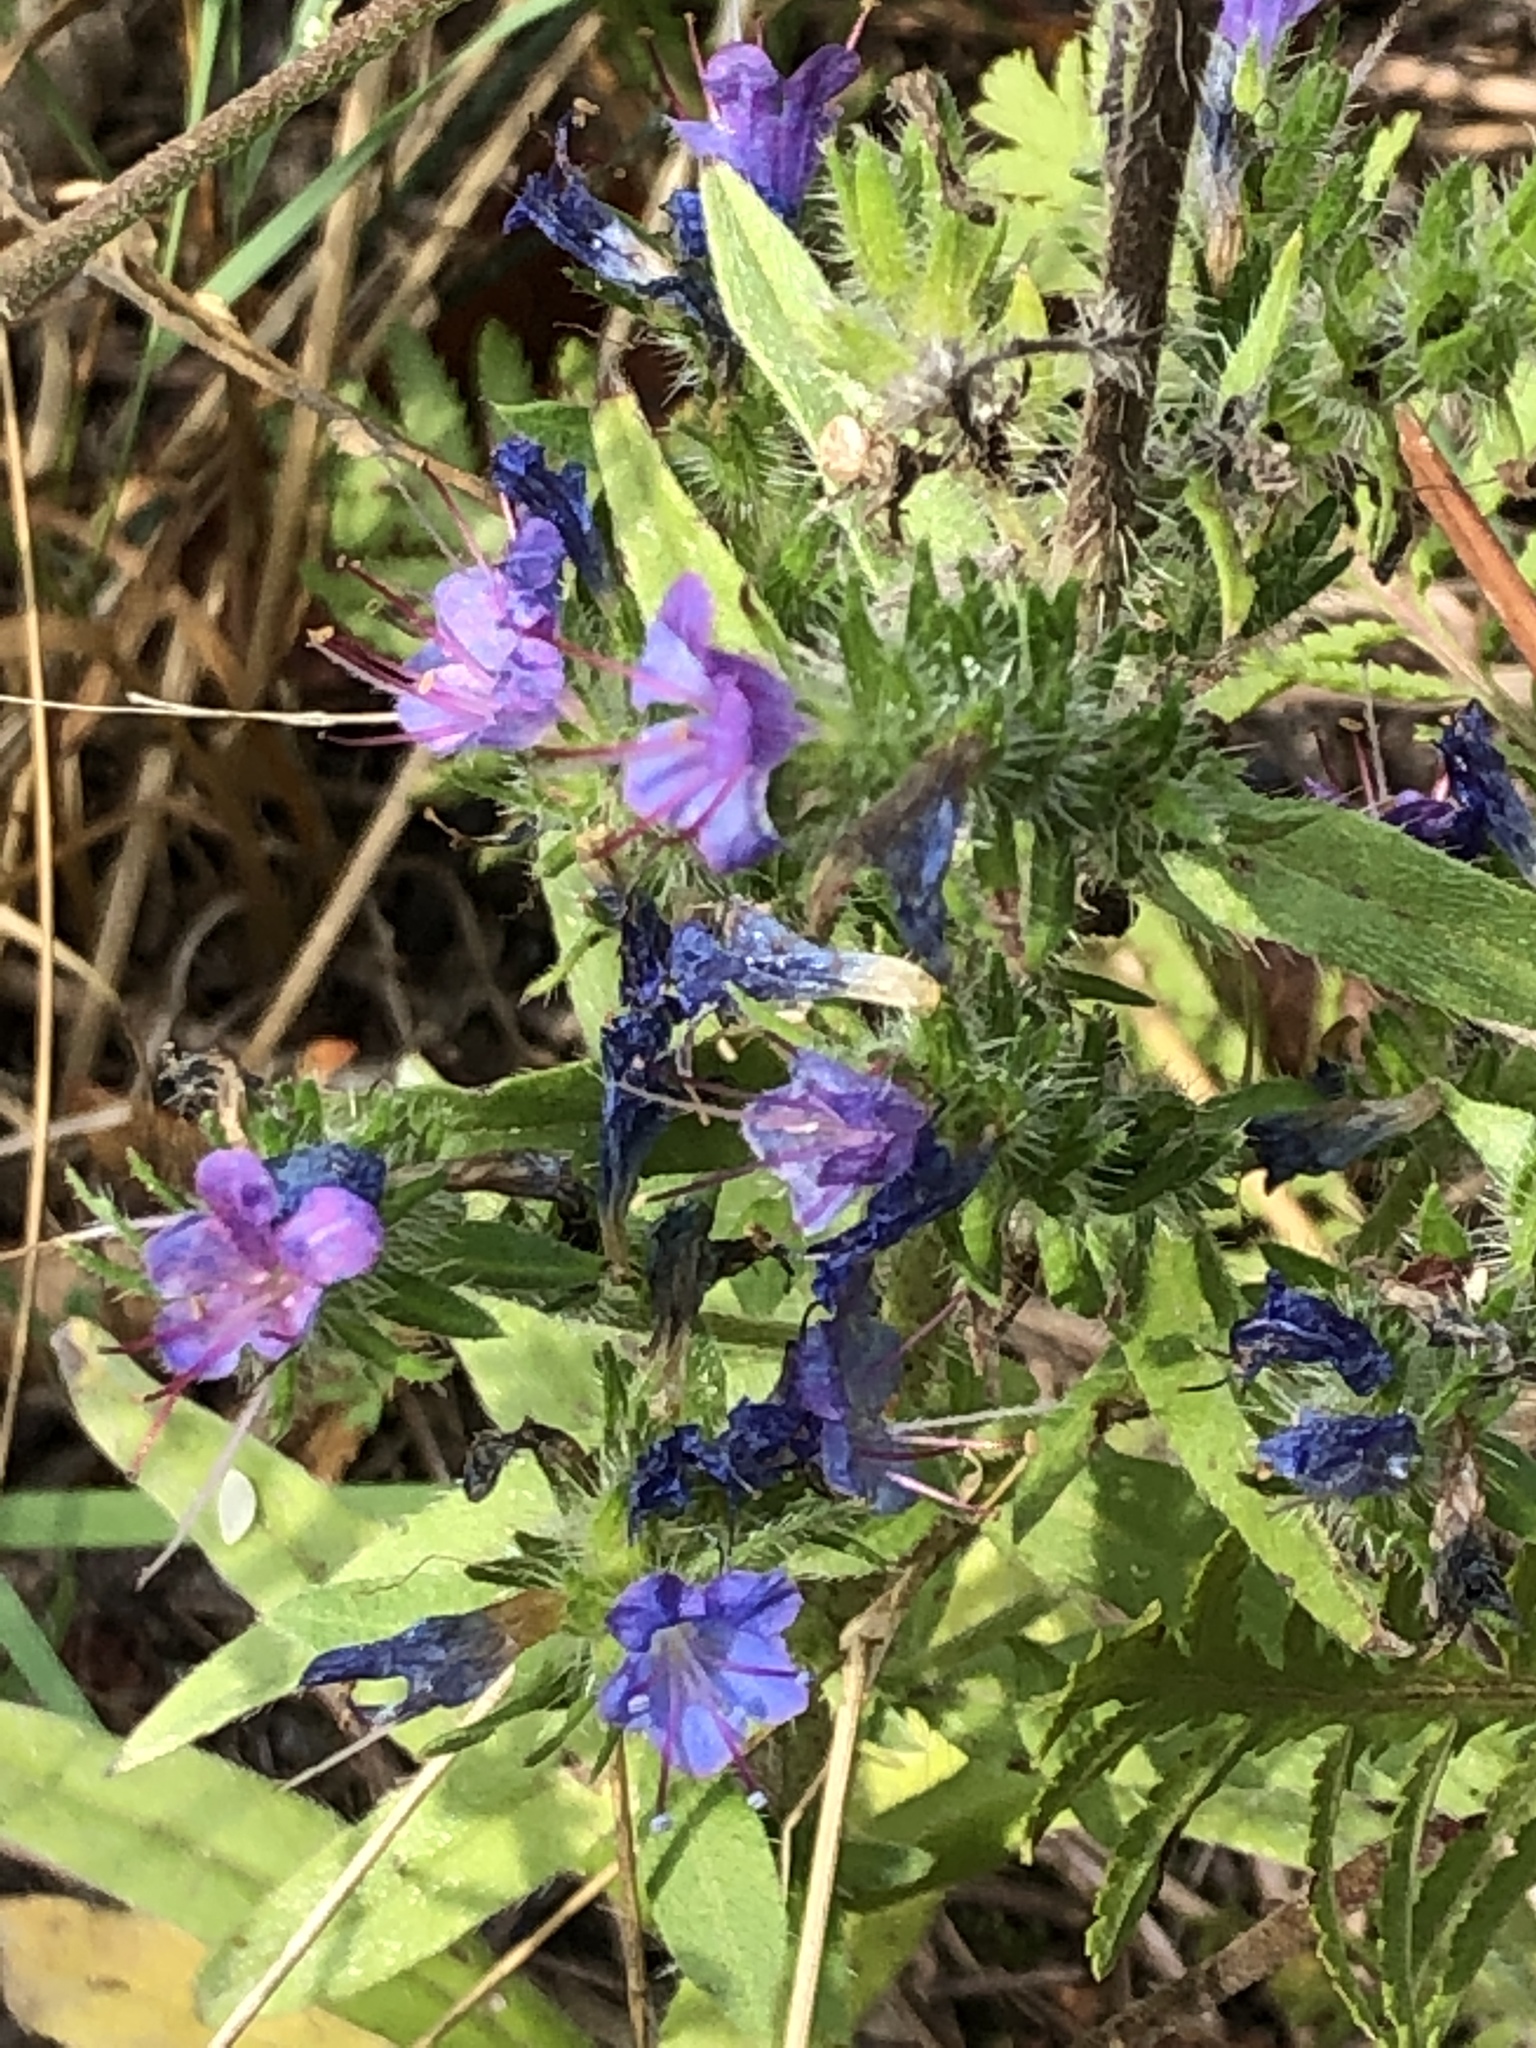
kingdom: Plantae
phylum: Tracheophyta
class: Magnoliopsida
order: Boraginales
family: Boraginaceae
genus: Echium
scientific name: Echium vulgare
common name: Common viper's bugloss
